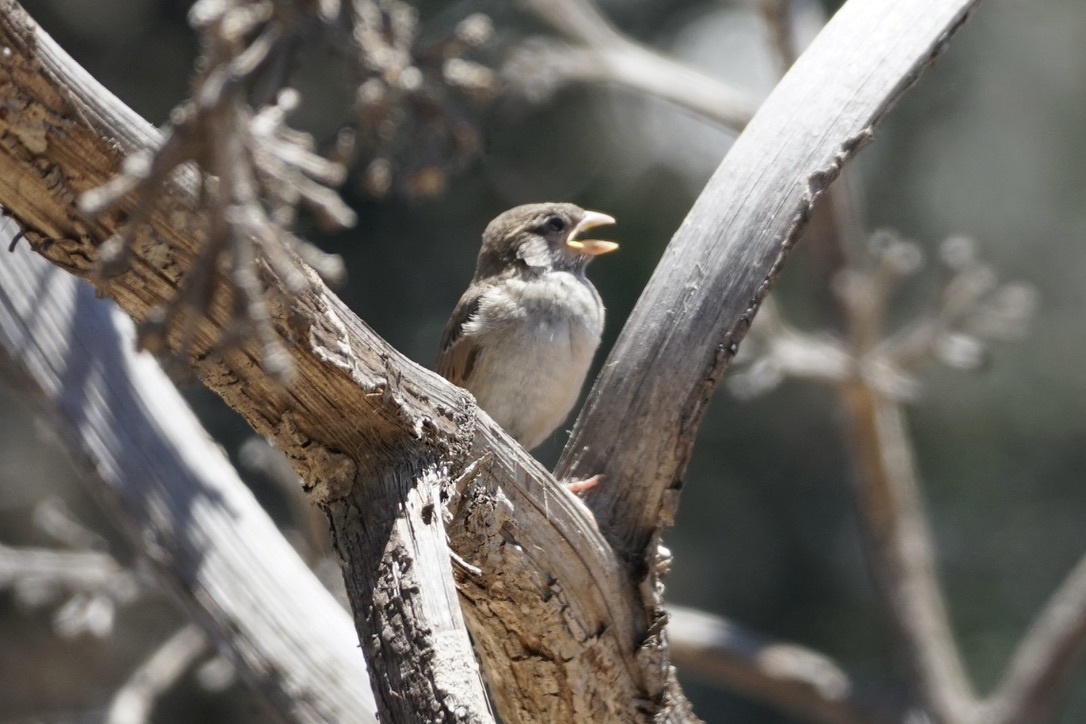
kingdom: Animalia
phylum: Chordata
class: Aves
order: Passeriformes
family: Passeridae
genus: Passer
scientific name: Passer domesticus
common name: House sparrow
